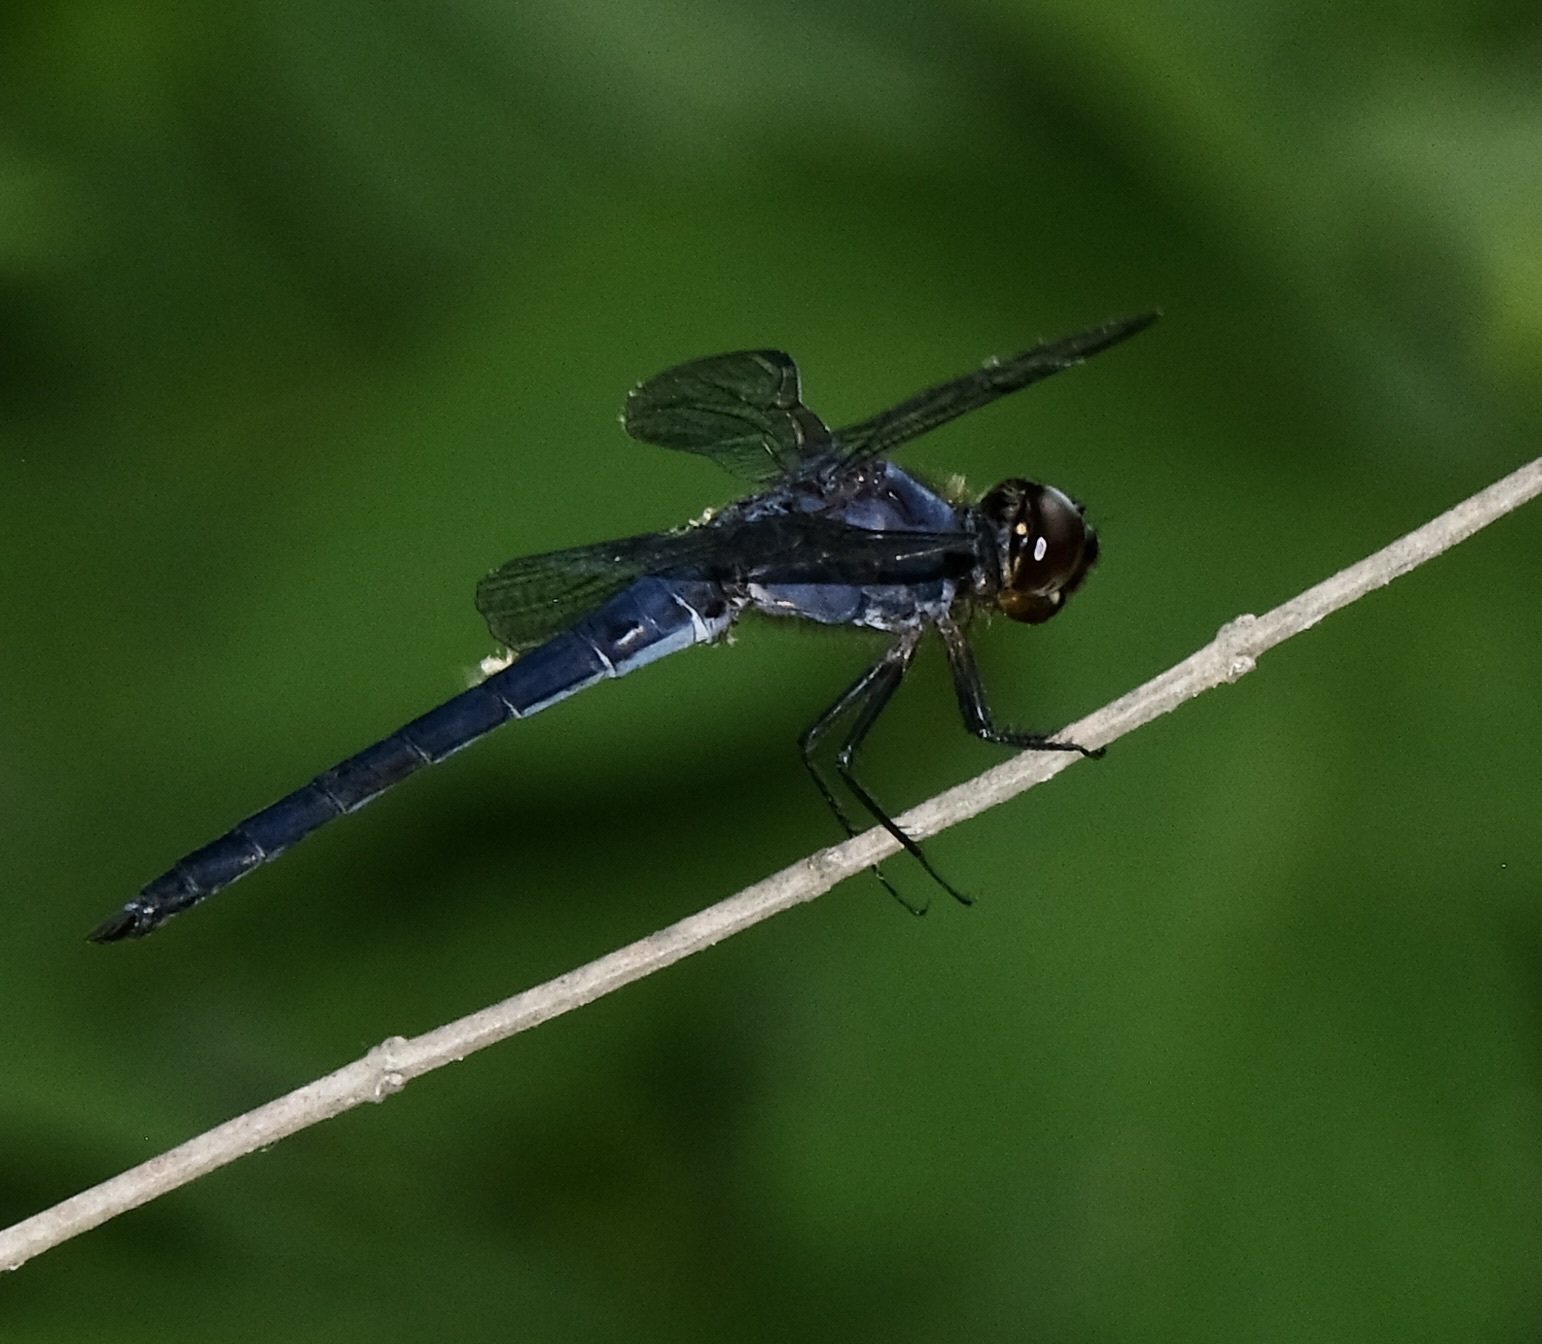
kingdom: Animalia
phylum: Arthropoda
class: Insecta
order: Odonata
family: Libellulidae
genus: Libellula
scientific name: Libellula incesta
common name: Slaty skimmer
